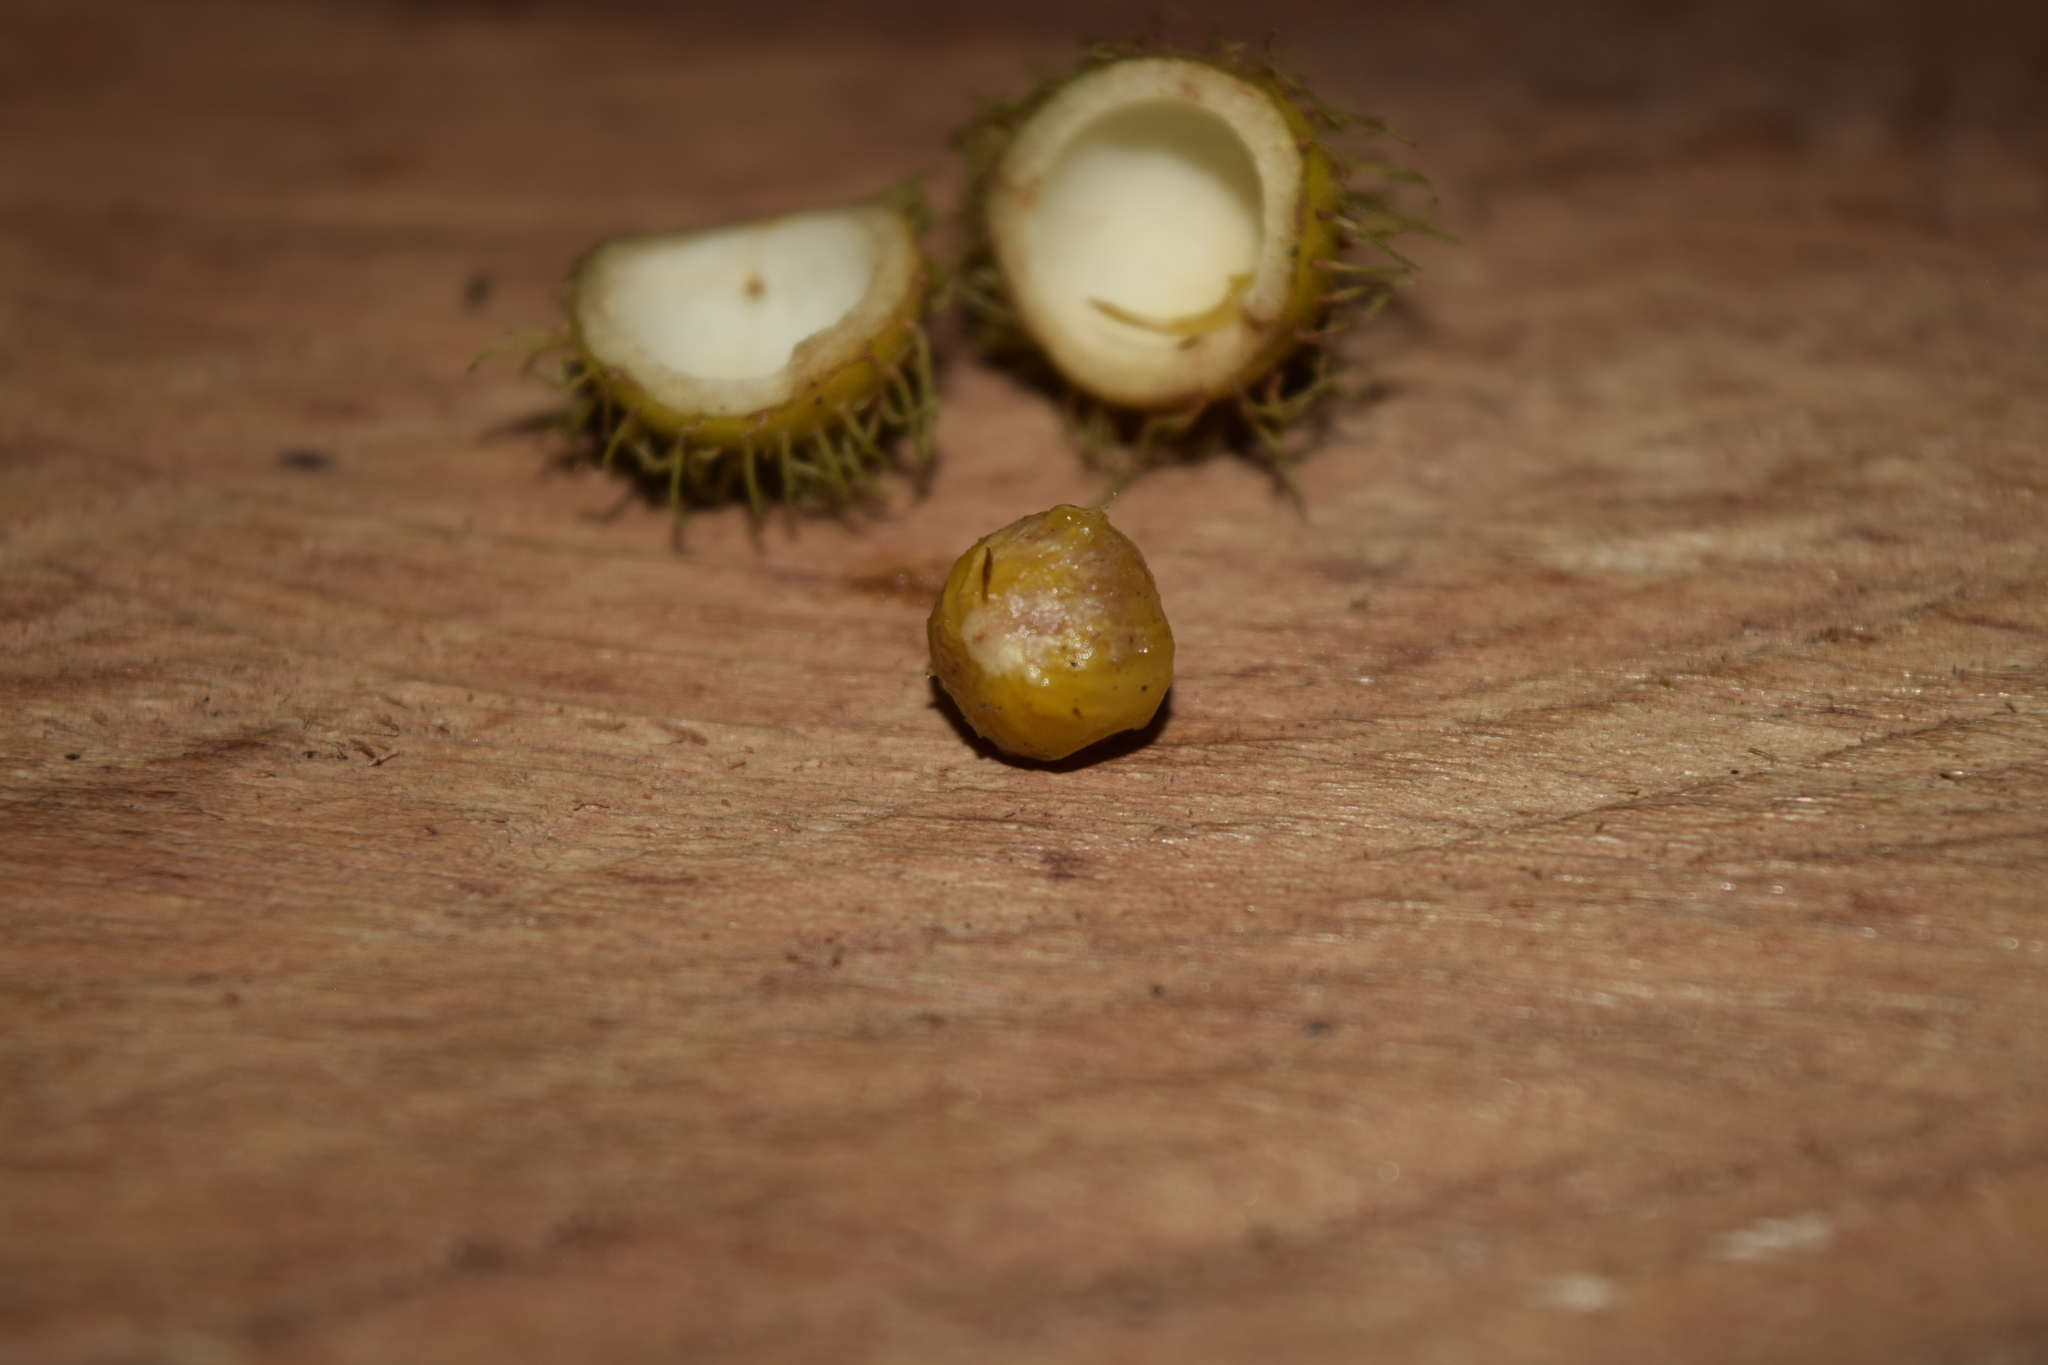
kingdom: Plantae
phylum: Tracheophyta
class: Magnoliopsida
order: Malpighiales
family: Achariaceae
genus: Mayna
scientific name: Mayna odorata
